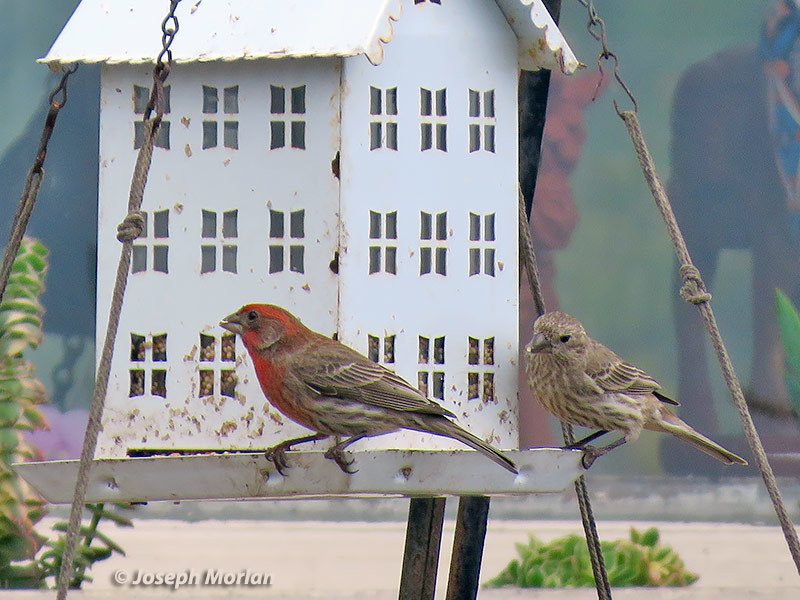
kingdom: Animalia
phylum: Chordata
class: Aves
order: Passeriformes
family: Fringillidae
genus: Haemorhous
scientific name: Haemorhous mexicanus
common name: House finch
